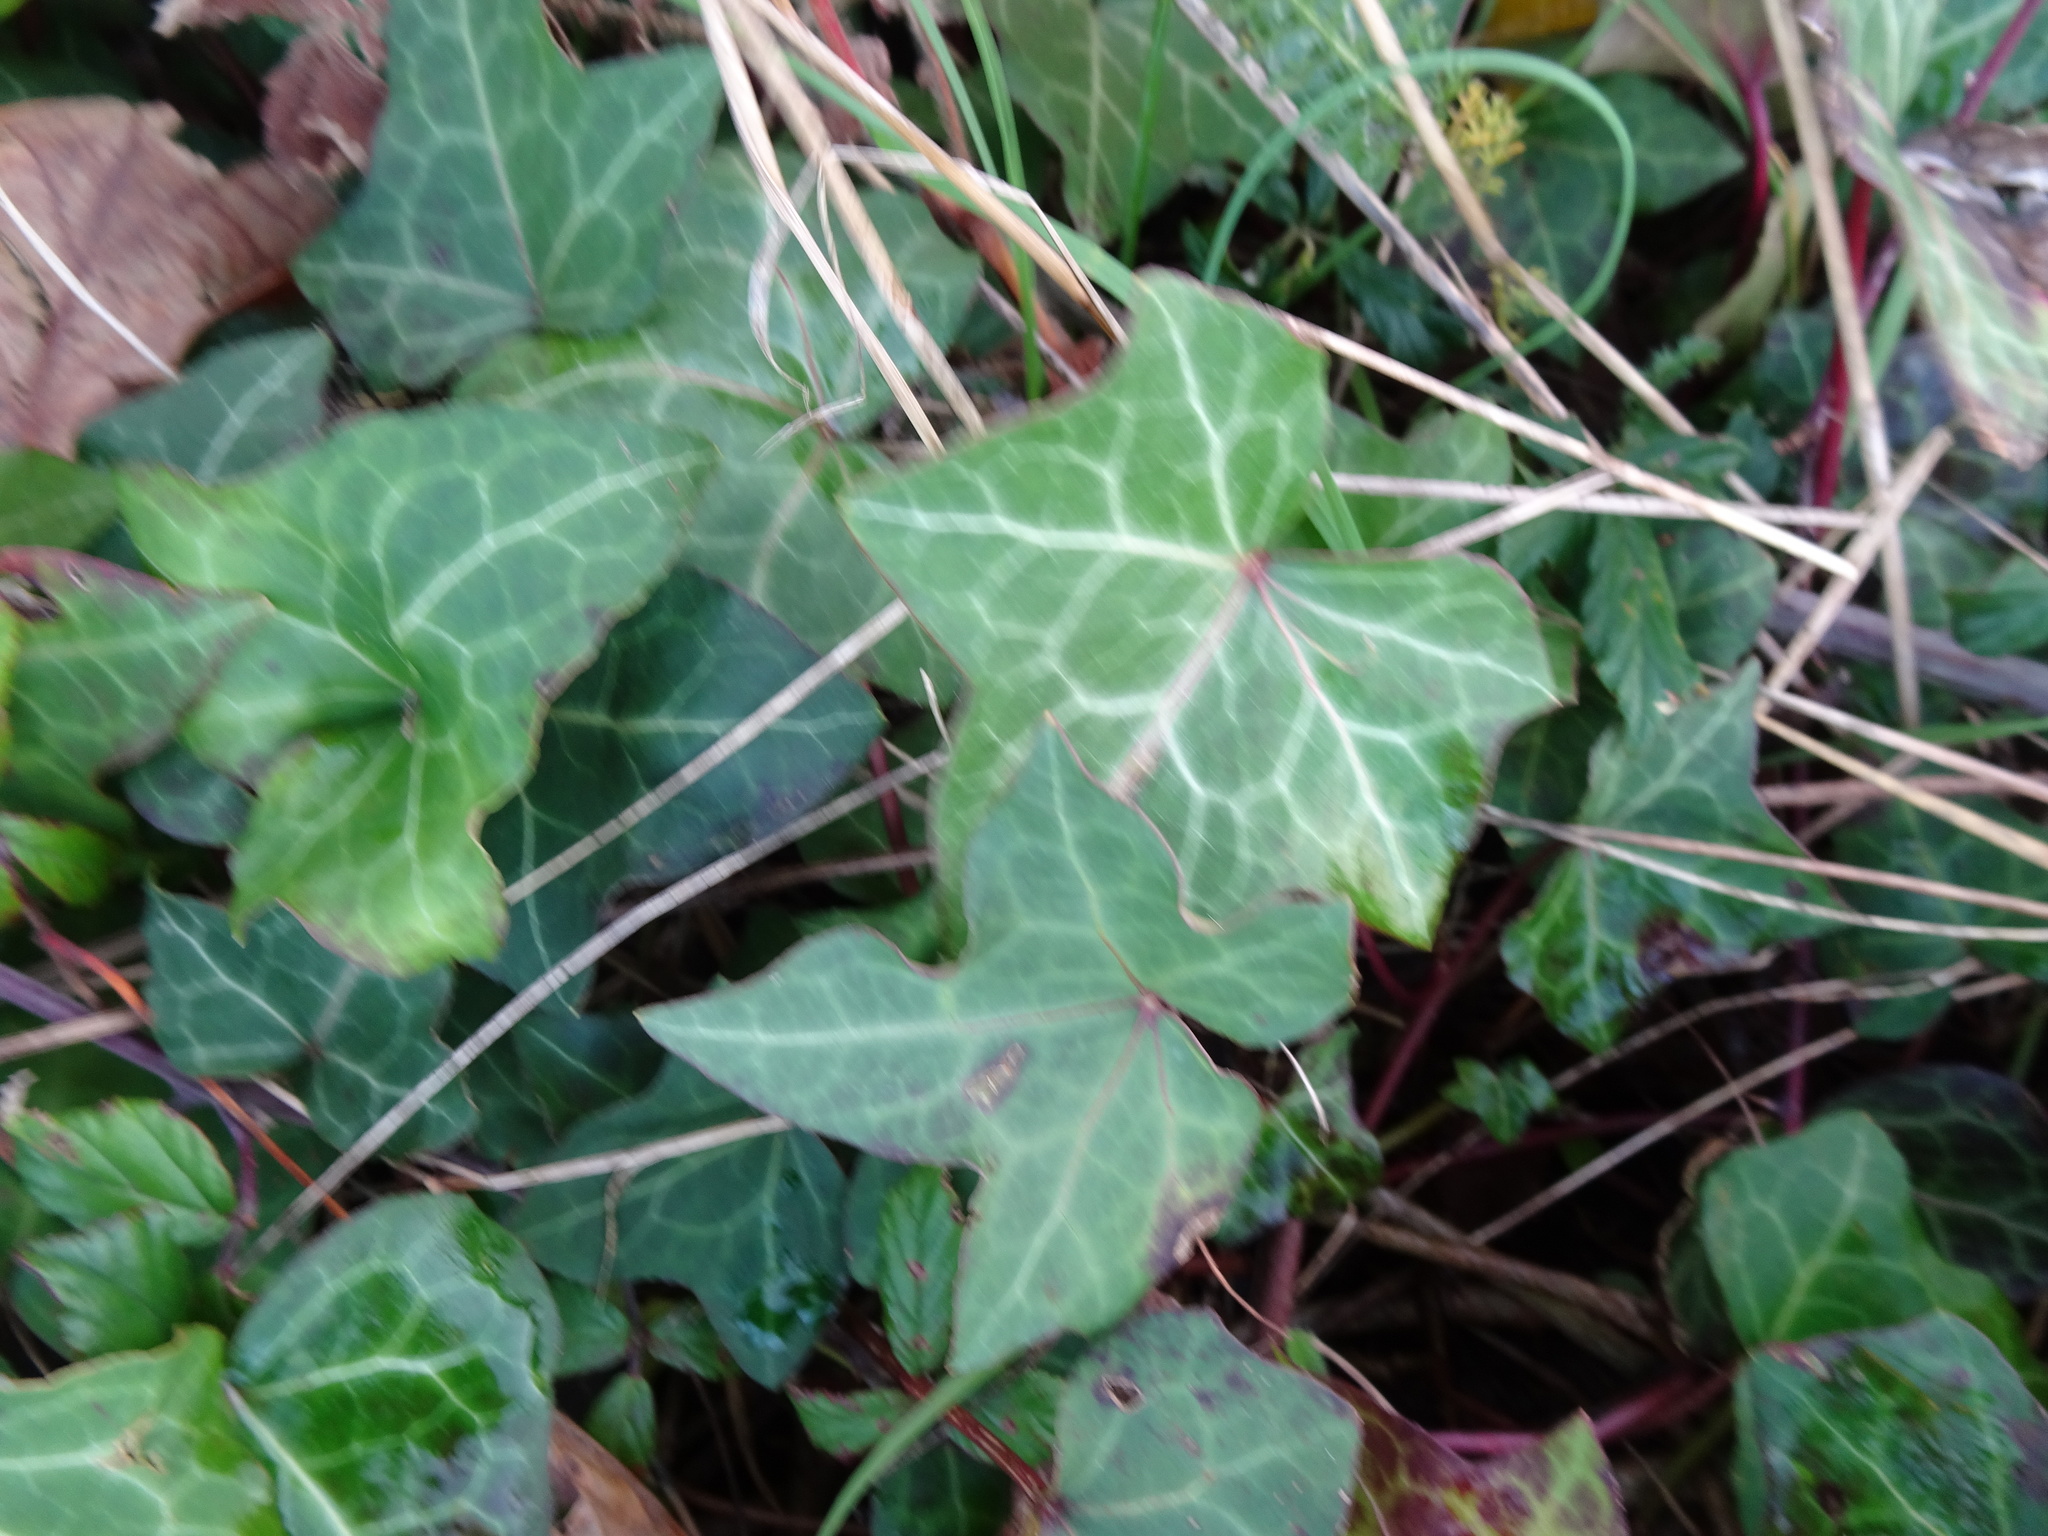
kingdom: Plantae
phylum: Tracheophyta
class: Magnoliopsida
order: Apiales
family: Araliaceae
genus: Hedera
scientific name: Hedera helix
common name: Ivy
